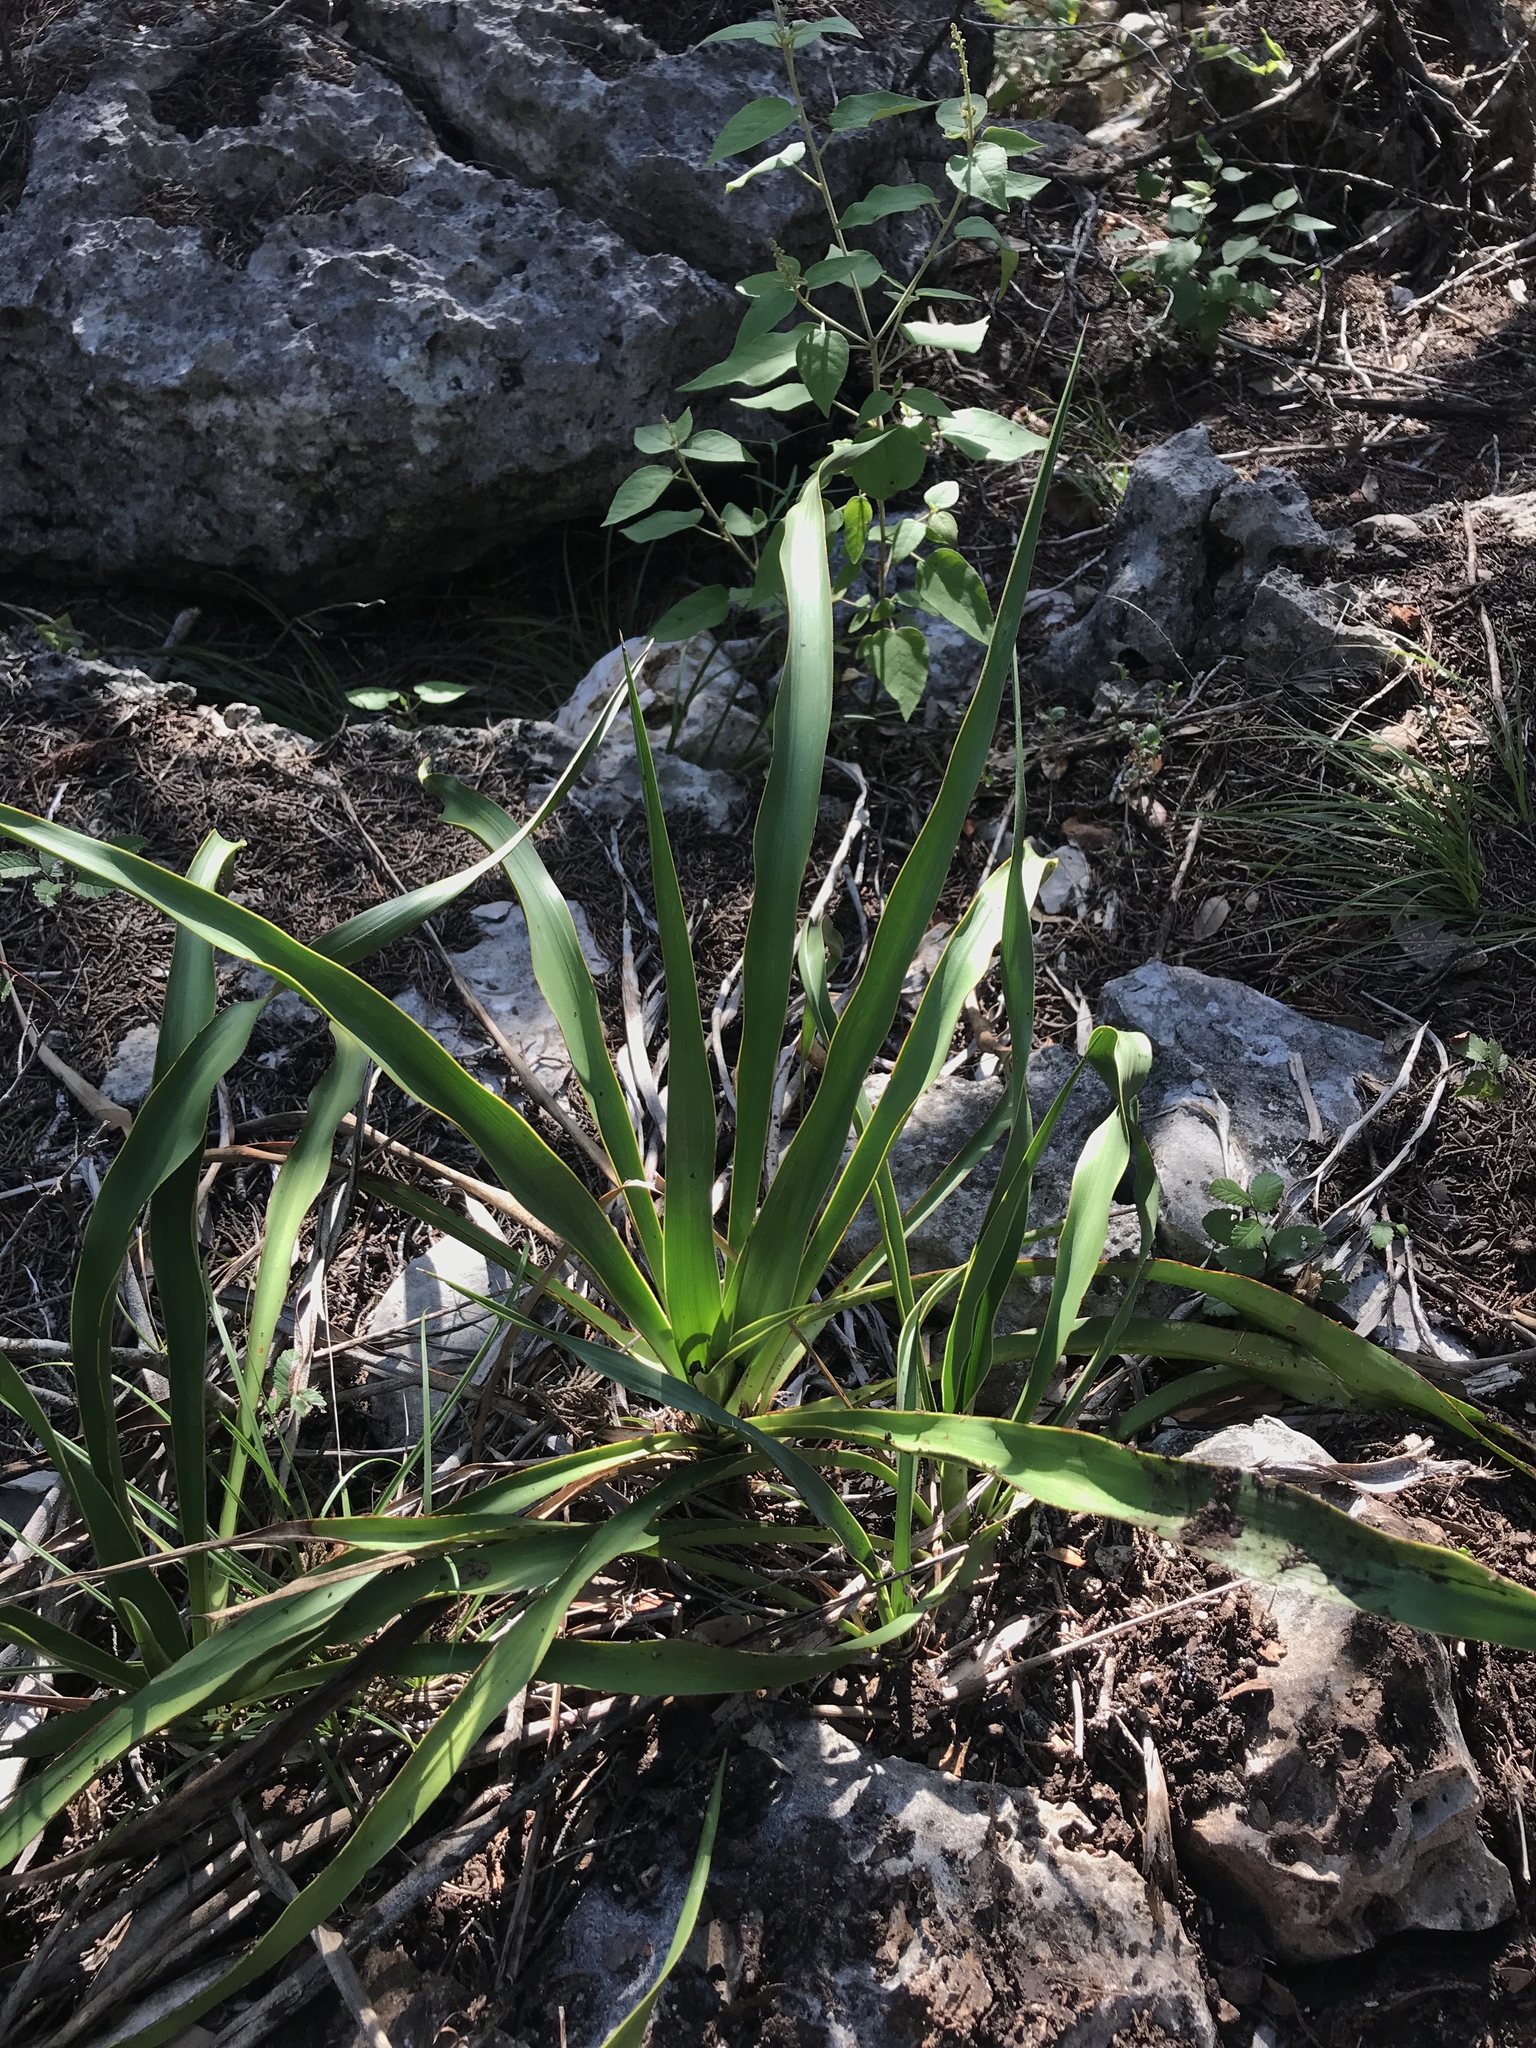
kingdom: Plantae
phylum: Tracheophyta
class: Liliopsida
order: Asparagales
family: Asparagaceae
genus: Yucca
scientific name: Yucca rupicola
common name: Twisted-leaf spanish-dagger
